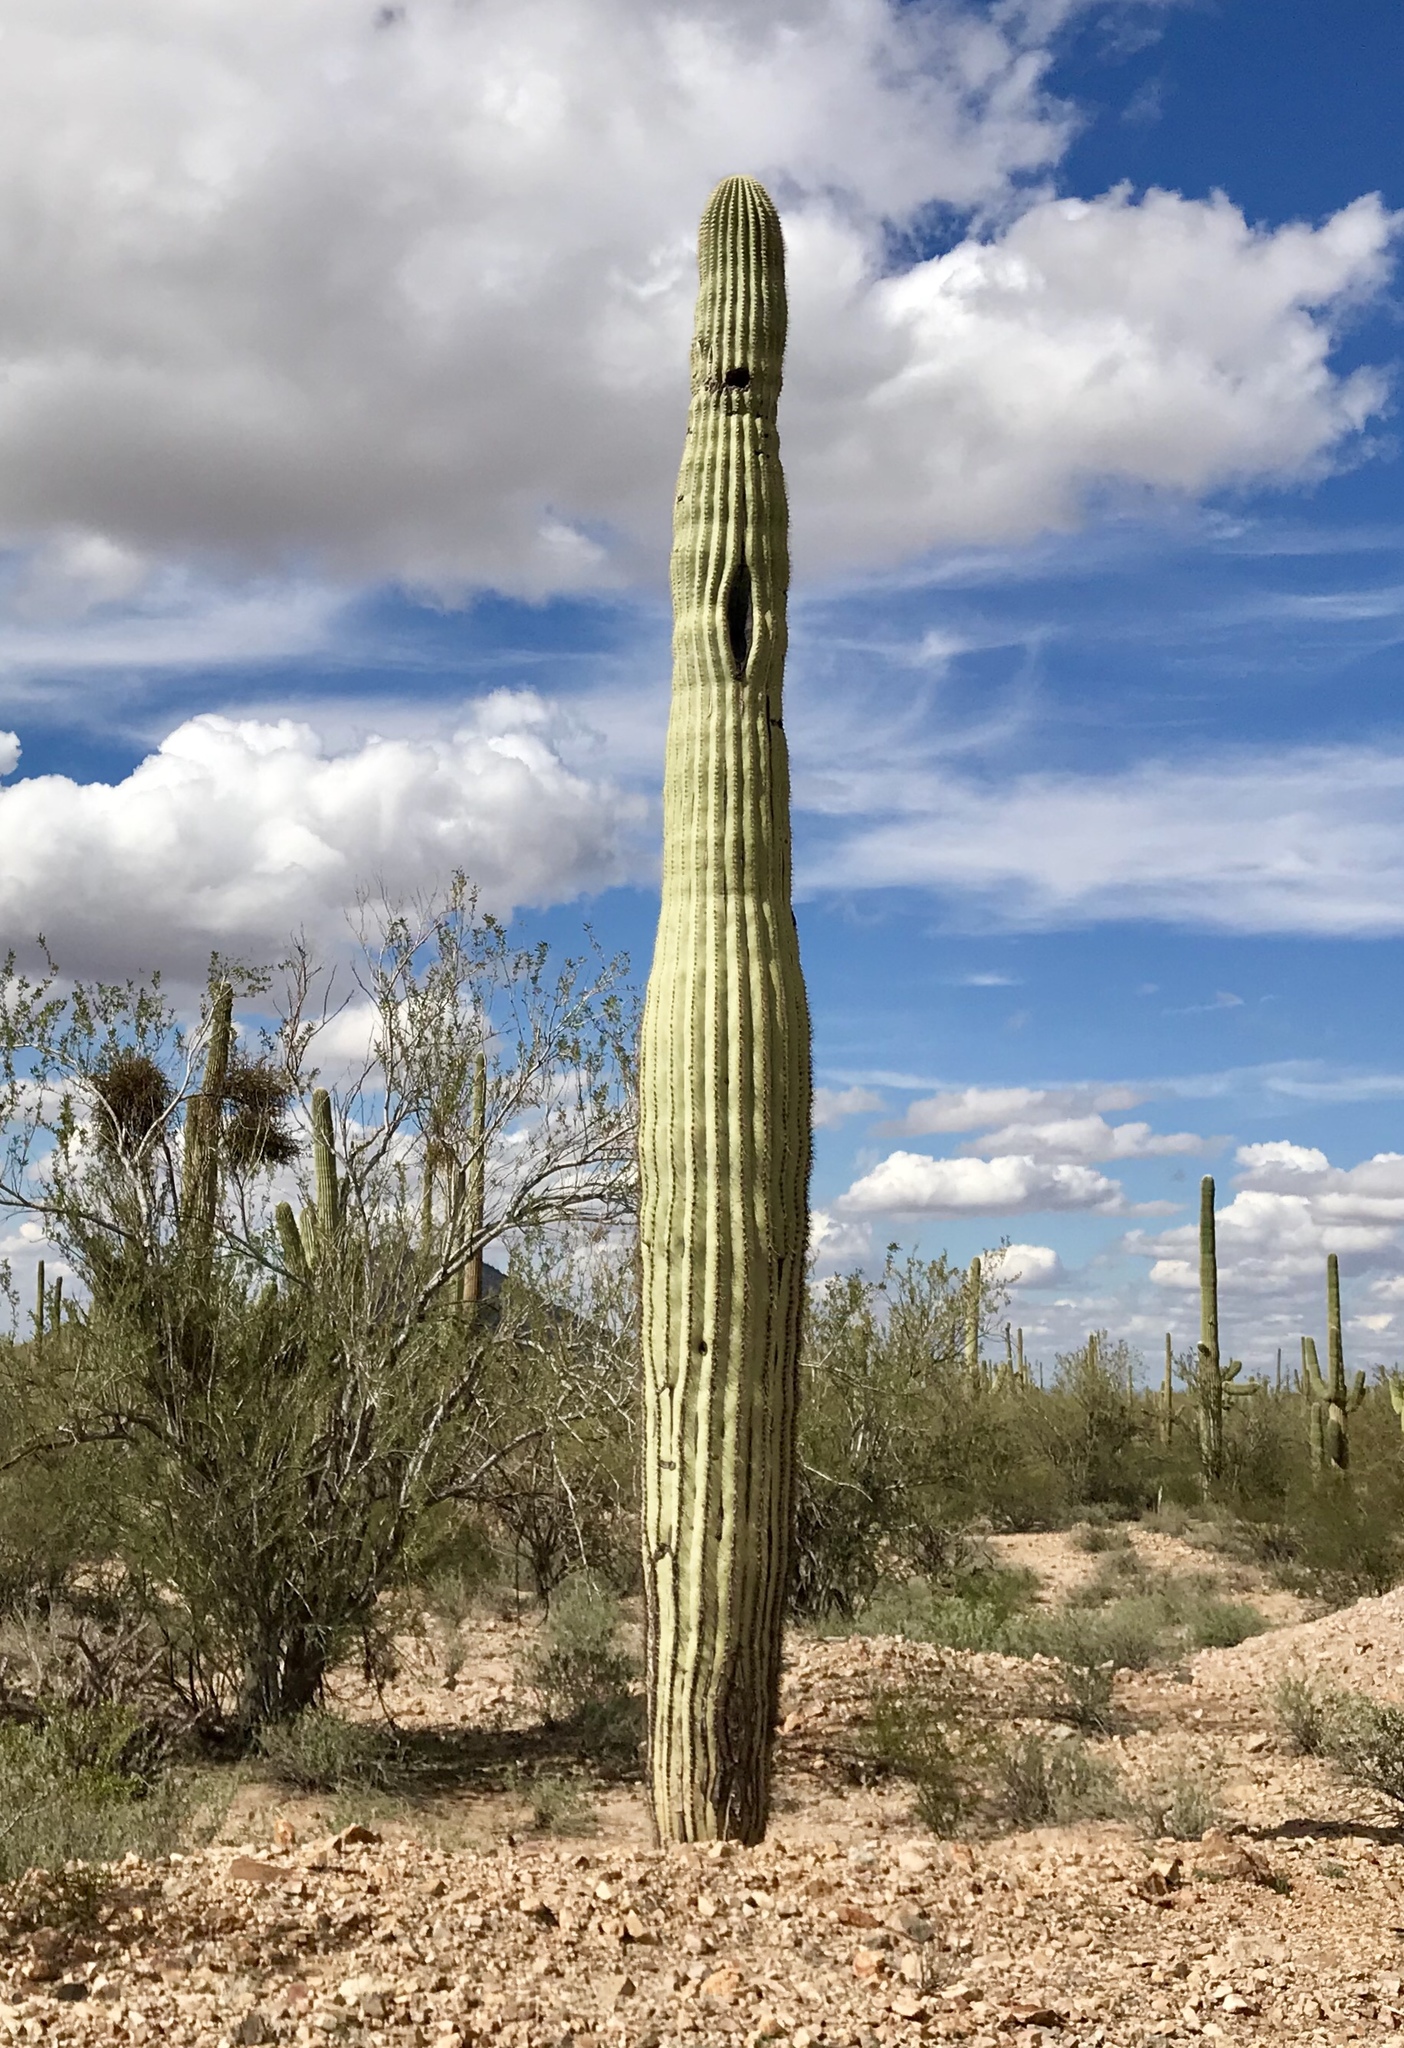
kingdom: Plantae
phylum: Tracheophyta
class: Magnoliopsida
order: Caryophyllales
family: Cactaceae
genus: Carnegiea
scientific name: Carnegiea gigantea
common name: Saguaro
